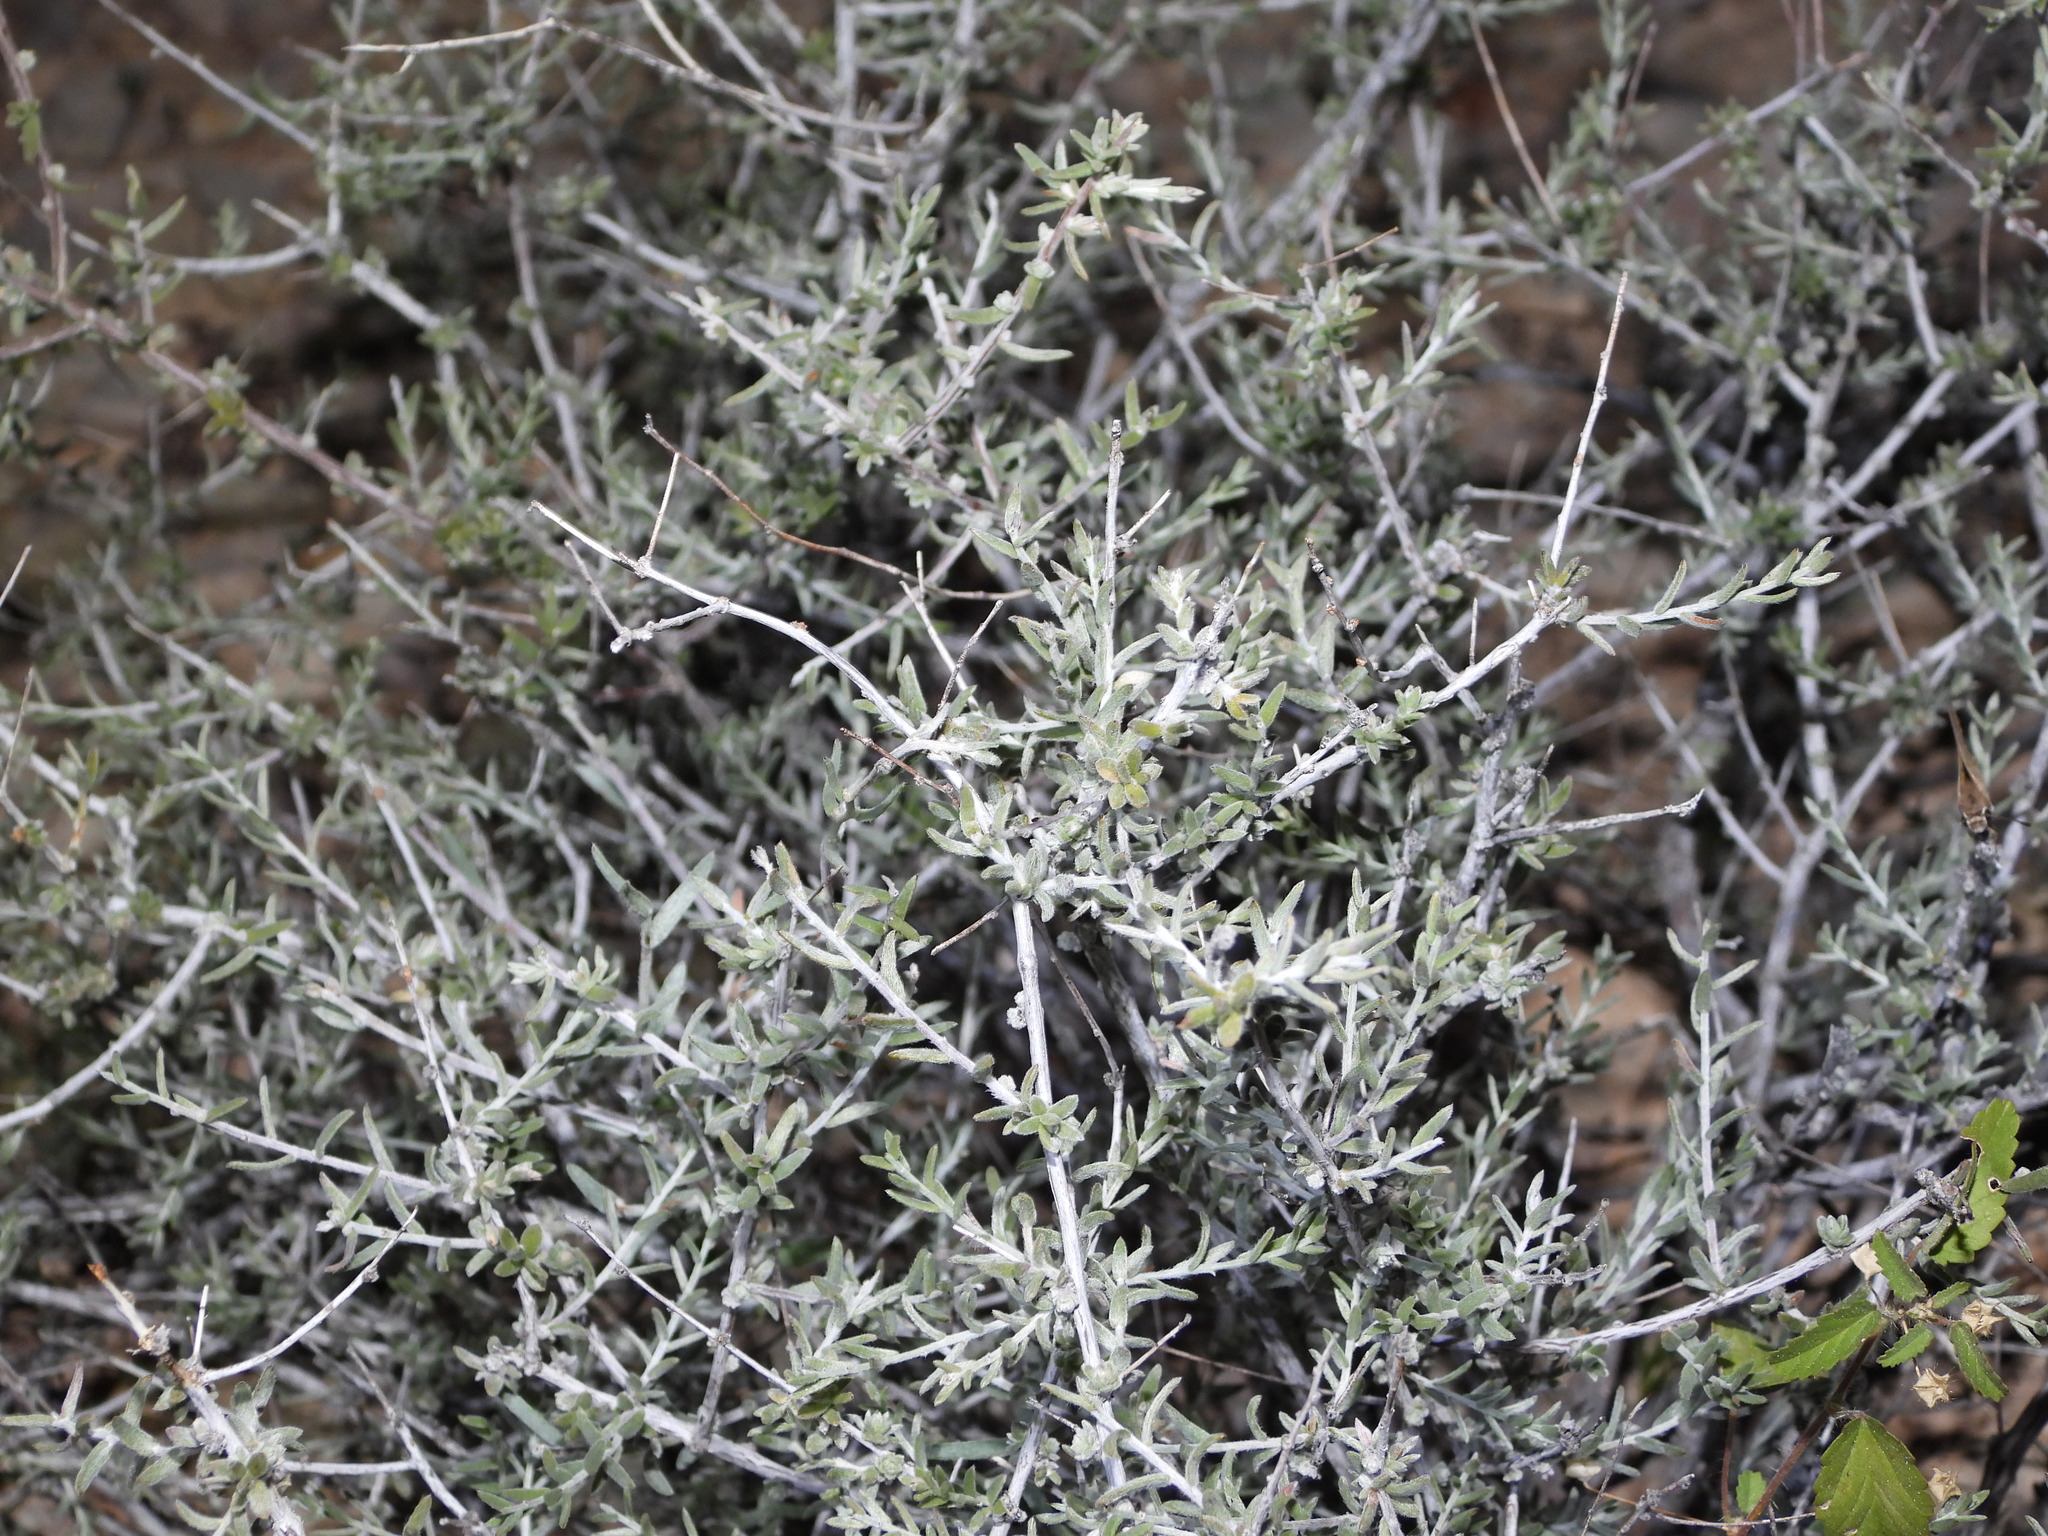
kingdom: Plantae
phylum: Tracheophyta
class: Magnoliopsida
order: Zygophyllales
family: Krameriaceae
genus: Krameria
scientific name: Krameria erecta
